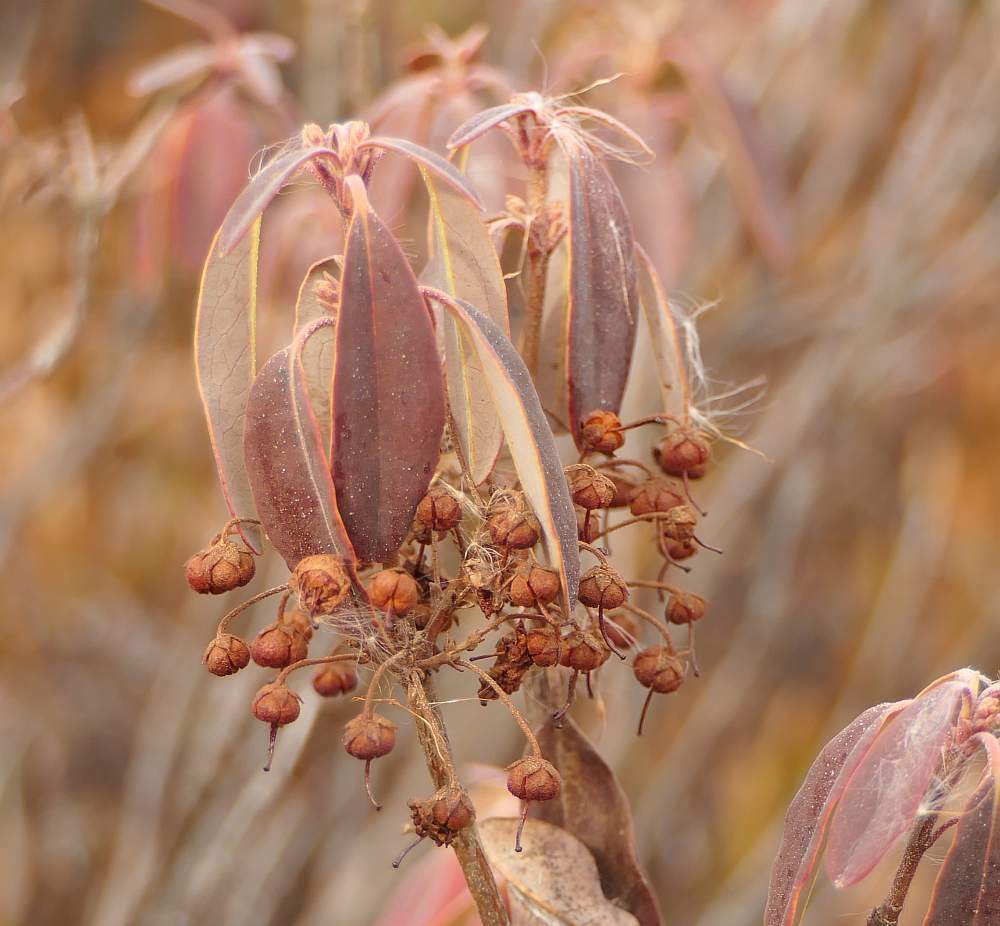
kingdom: Plantae
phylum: Tracheophyta
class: Magnoliopsida
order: Ericales
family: Ericaceae
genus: Kalmia
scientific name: Kalmia angustifolia
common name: Sheep-laurel
